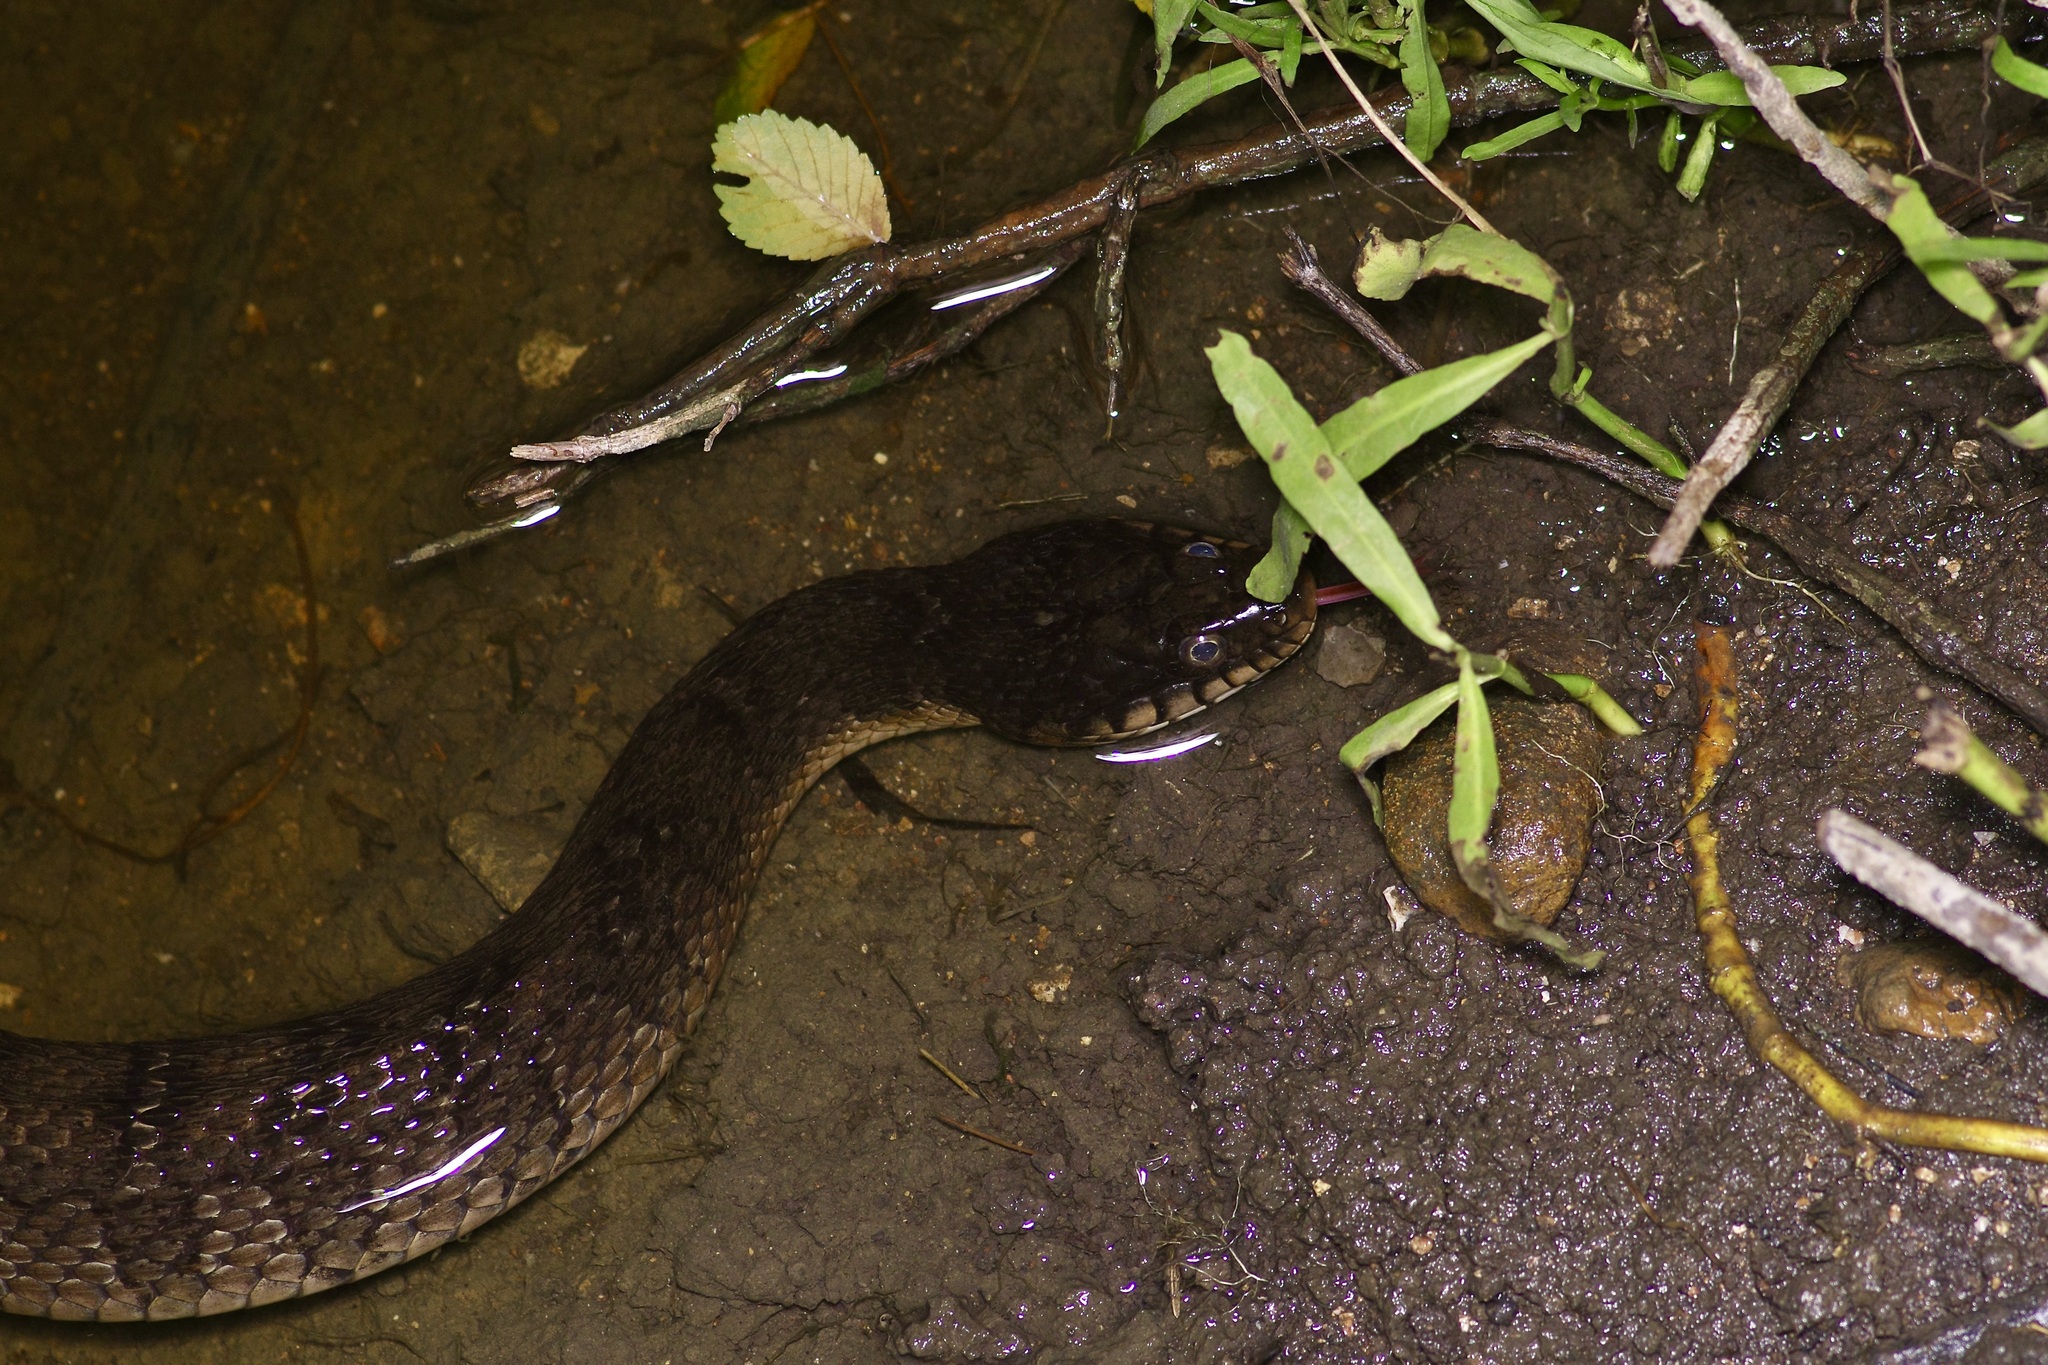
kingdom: Animalia
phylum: Chordata
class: Squamata
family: Colubridae
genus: Nerodia
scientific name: Nerodia erythrogaster
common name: Plainbelly water snake
